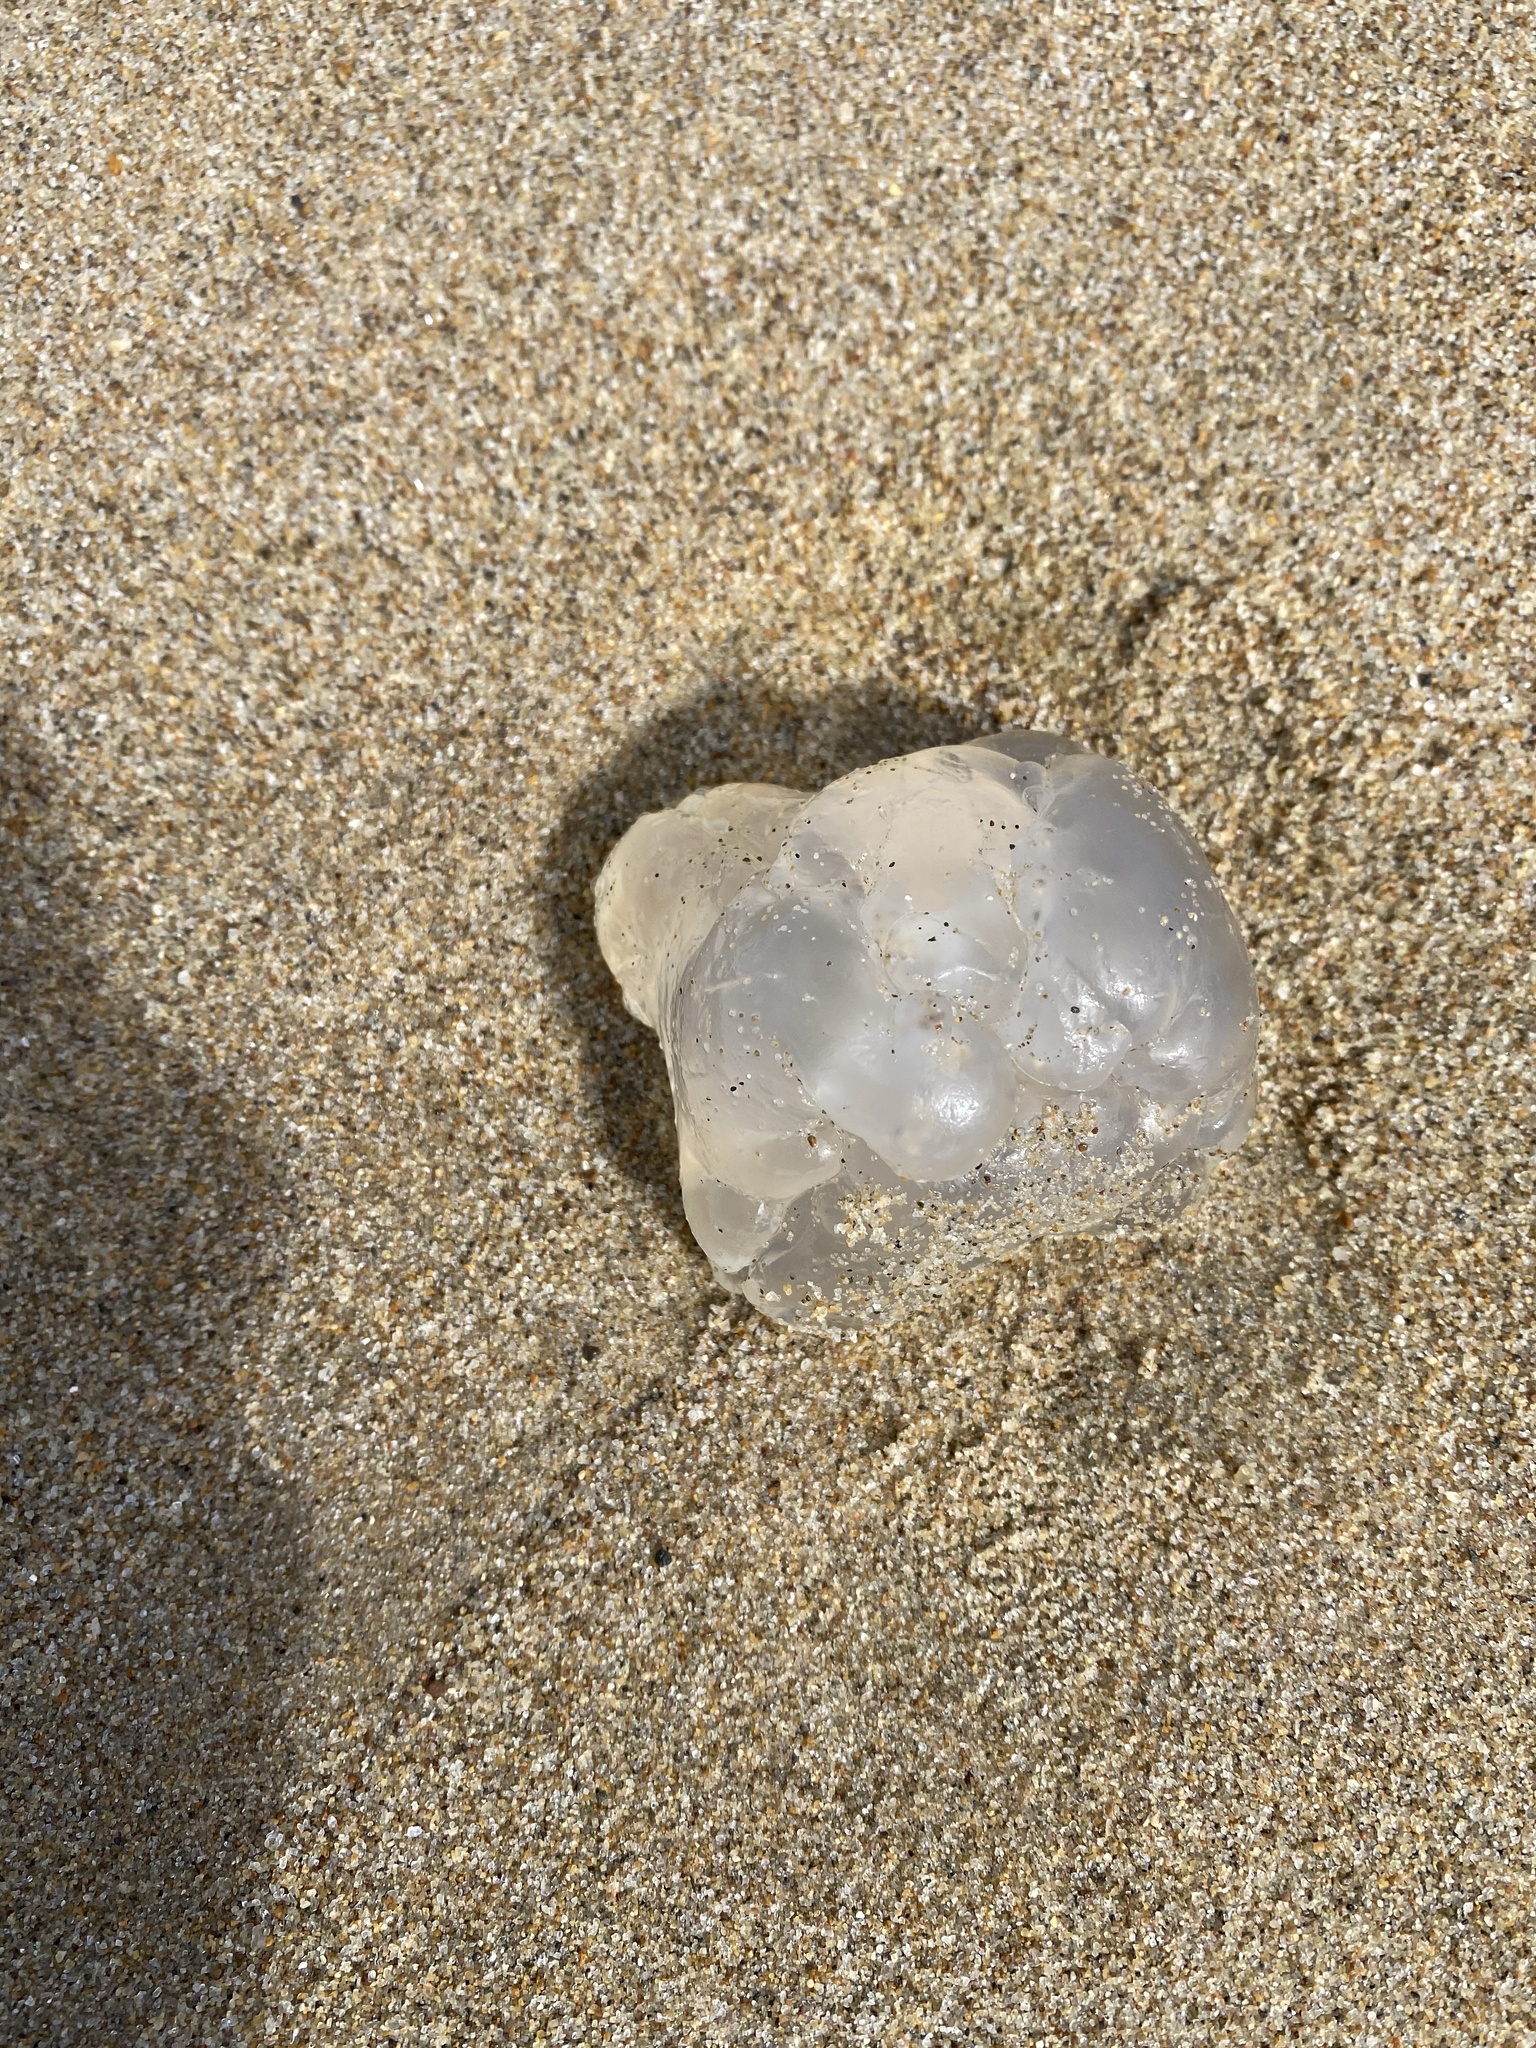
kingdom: Animalia
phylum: Cnidaria
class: Scyphozoa
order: Semaeostomeae
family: Ulmaridae
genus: Aurelia
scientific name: Aurelia labiata
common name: Pacific moon jelly
